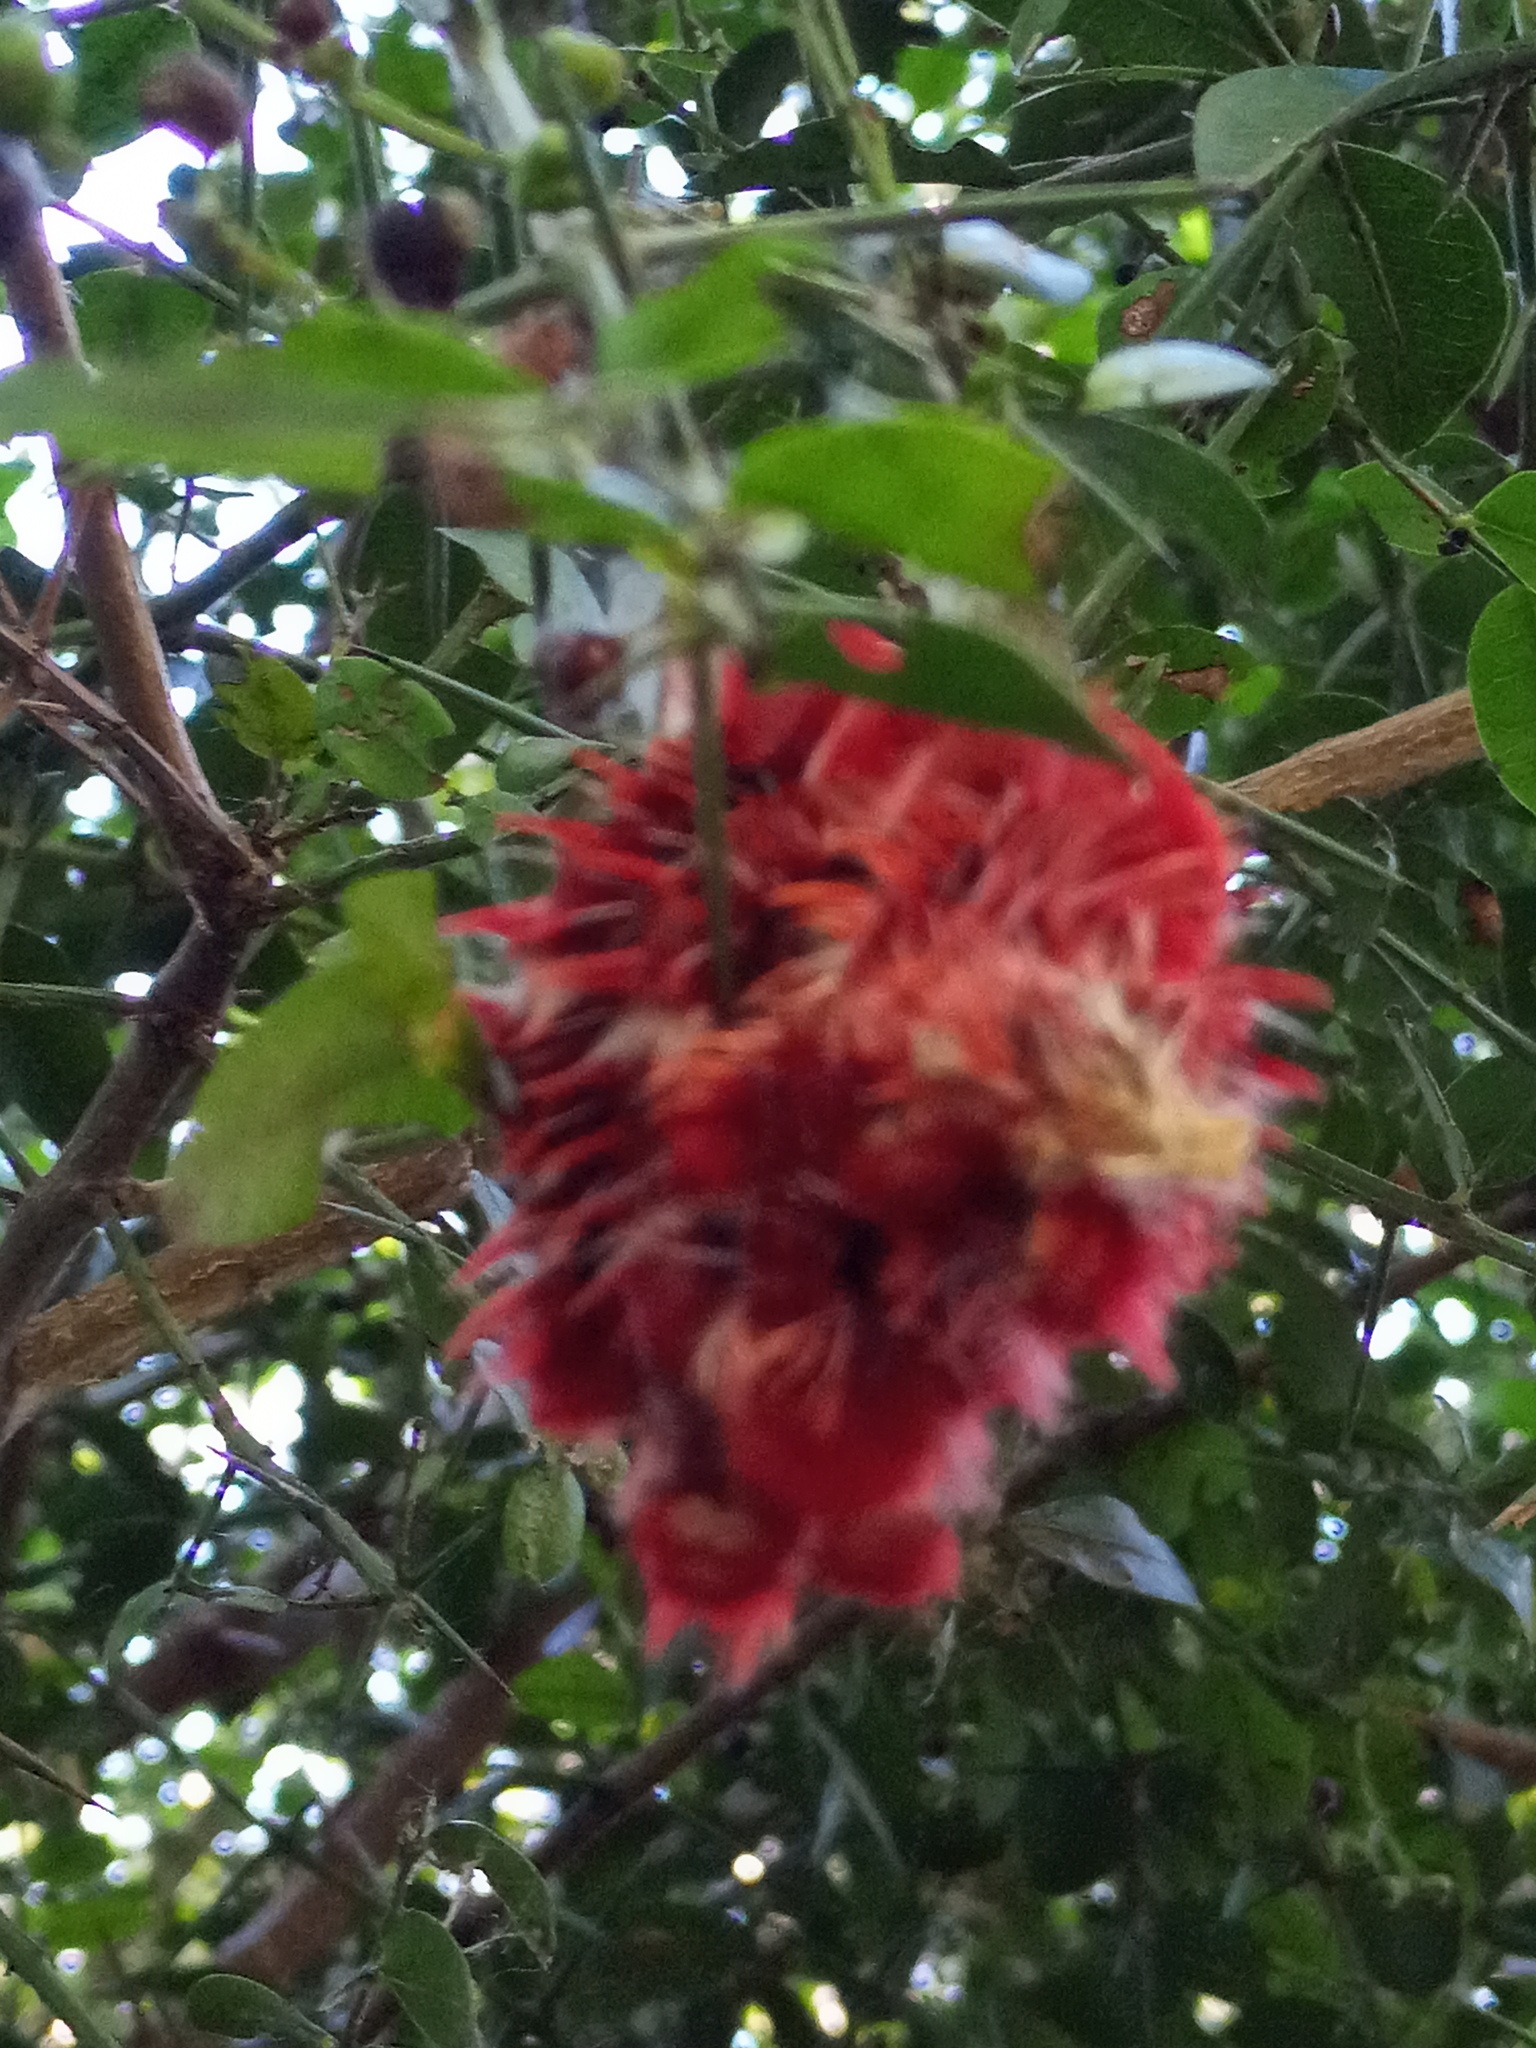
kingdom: Animalia
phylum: Arthropoda
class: Insecta
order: Lepidoptera
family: Nymphalidae
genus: Morpho
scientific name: Morpho epistrophus
